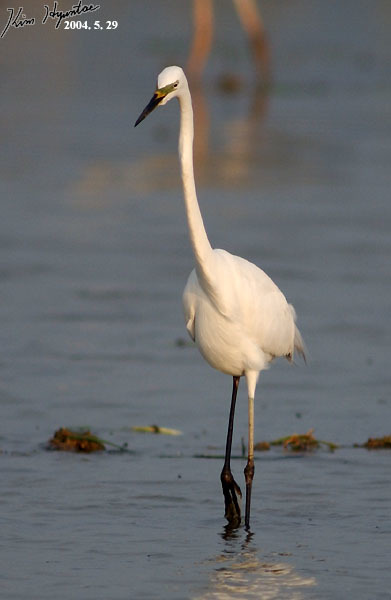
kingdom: Animalia
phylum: Chordata
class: Aves
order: Pelecaniformes
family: Ardeidae
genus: Ardea
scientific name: Ardea modesta
